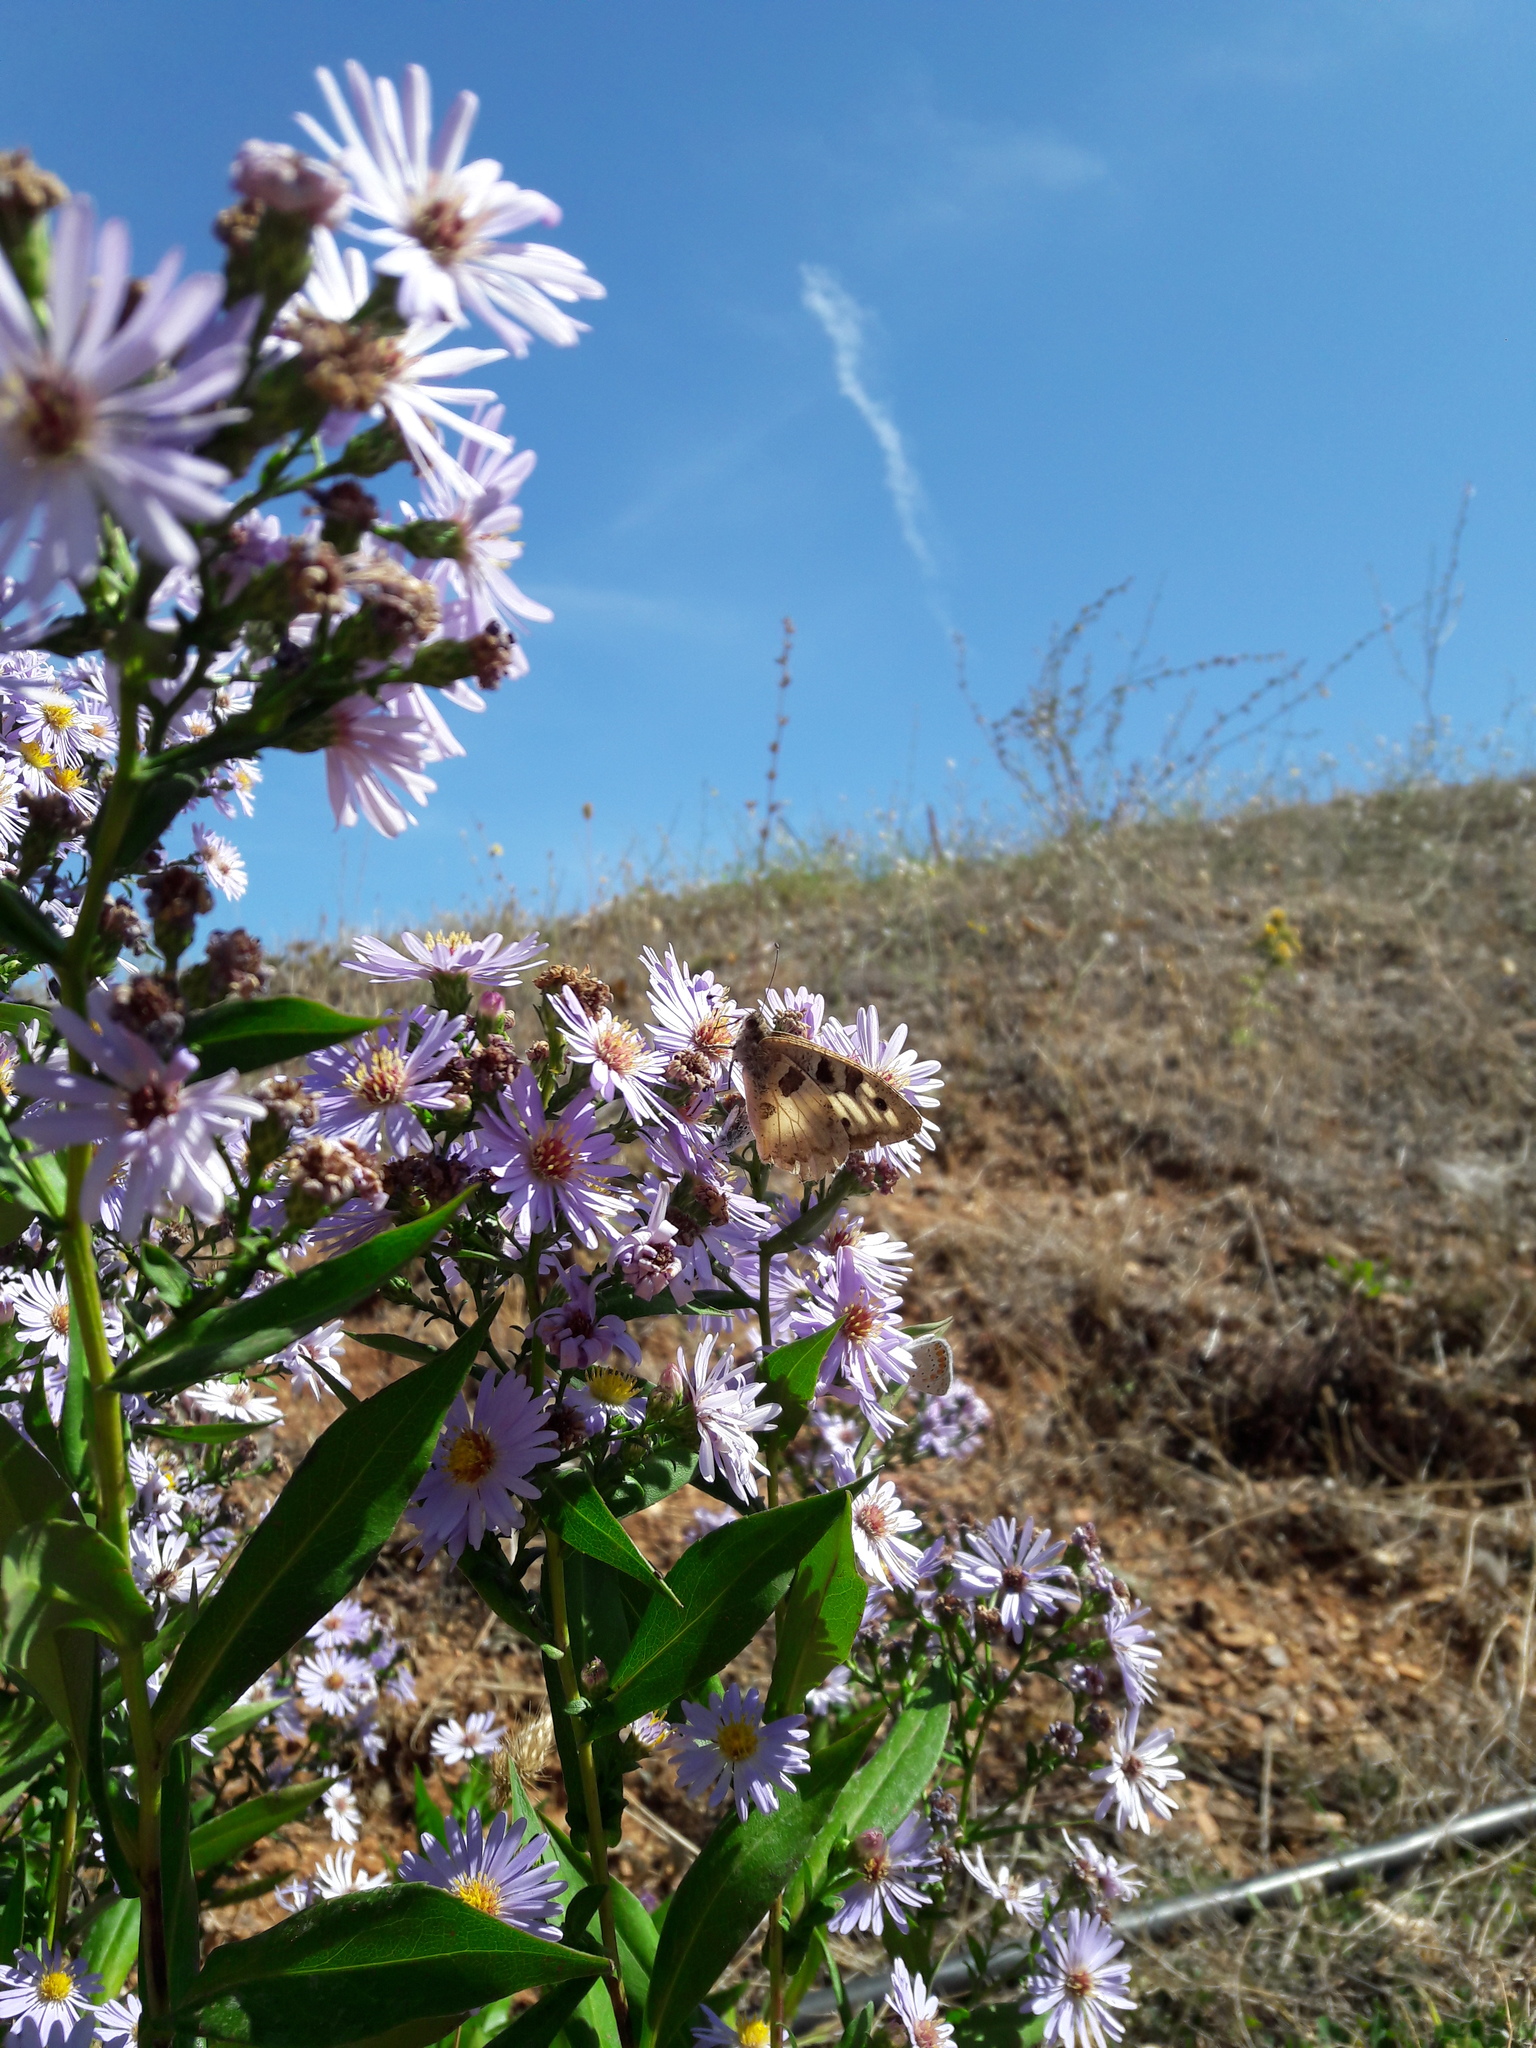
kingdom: Animalia
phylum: Arthropoda
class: Insecta
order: Lepidoptera
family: Nymphalidae
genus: Satyrus
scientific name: Satyrus briseis
